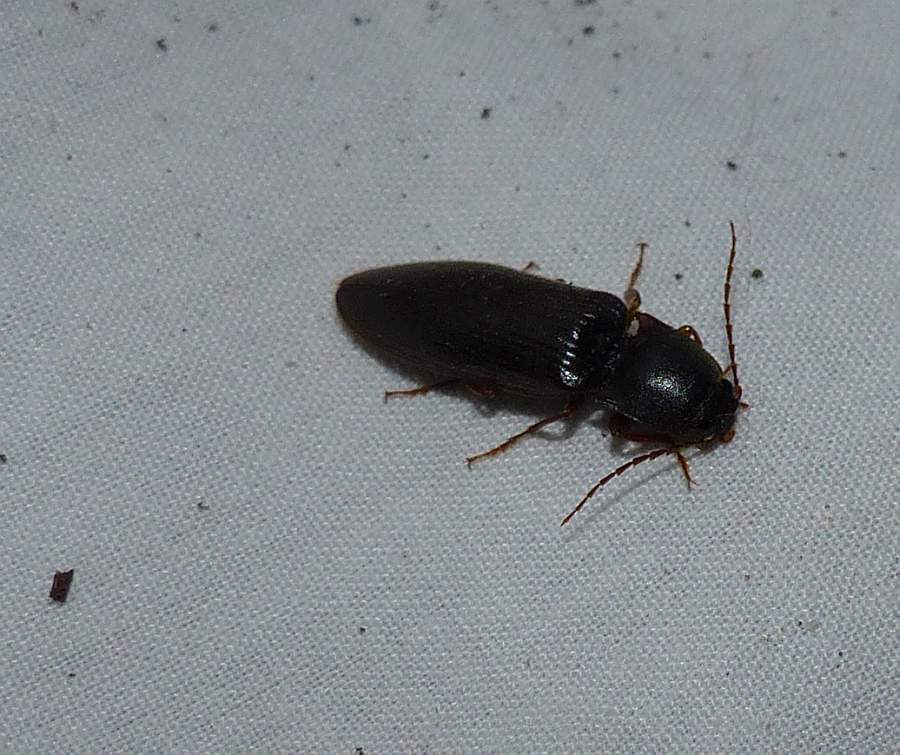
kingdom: Animalia
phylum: Arthropoda
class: Insecta
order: Coleoptera
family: Elateridae
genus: Hemicrepidius
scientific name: Hemicrepidius
